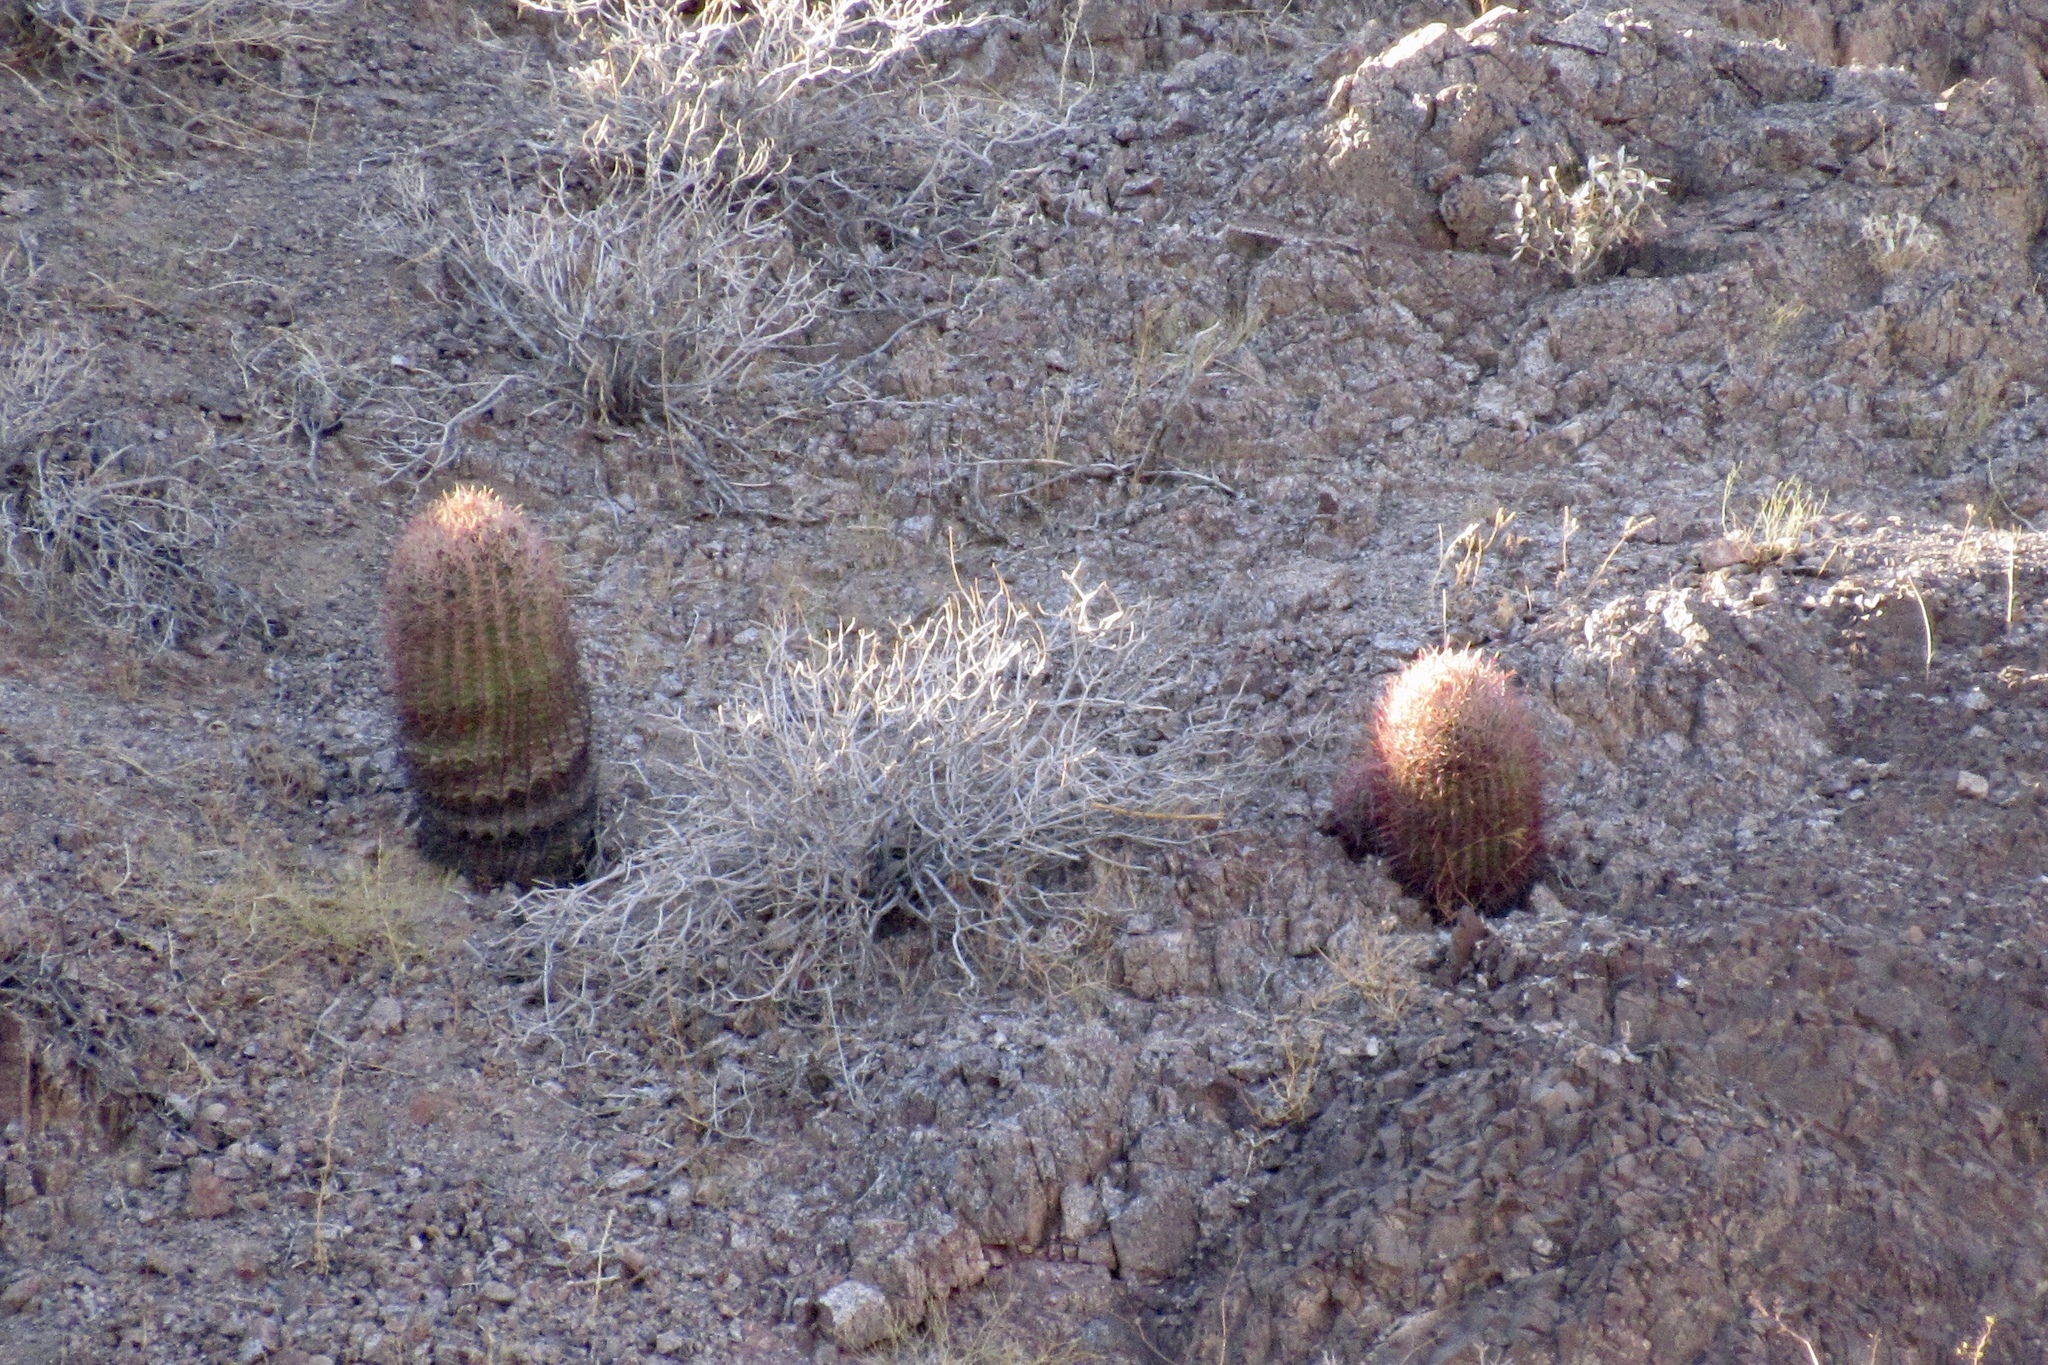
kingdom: Plantae
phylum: Tracheophyta
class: Magnoliopsida
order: Caryophyllales
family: Cactaceae
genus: Ferocactus
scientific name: Ferocactus cylindraceus
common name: California barrel cactus
